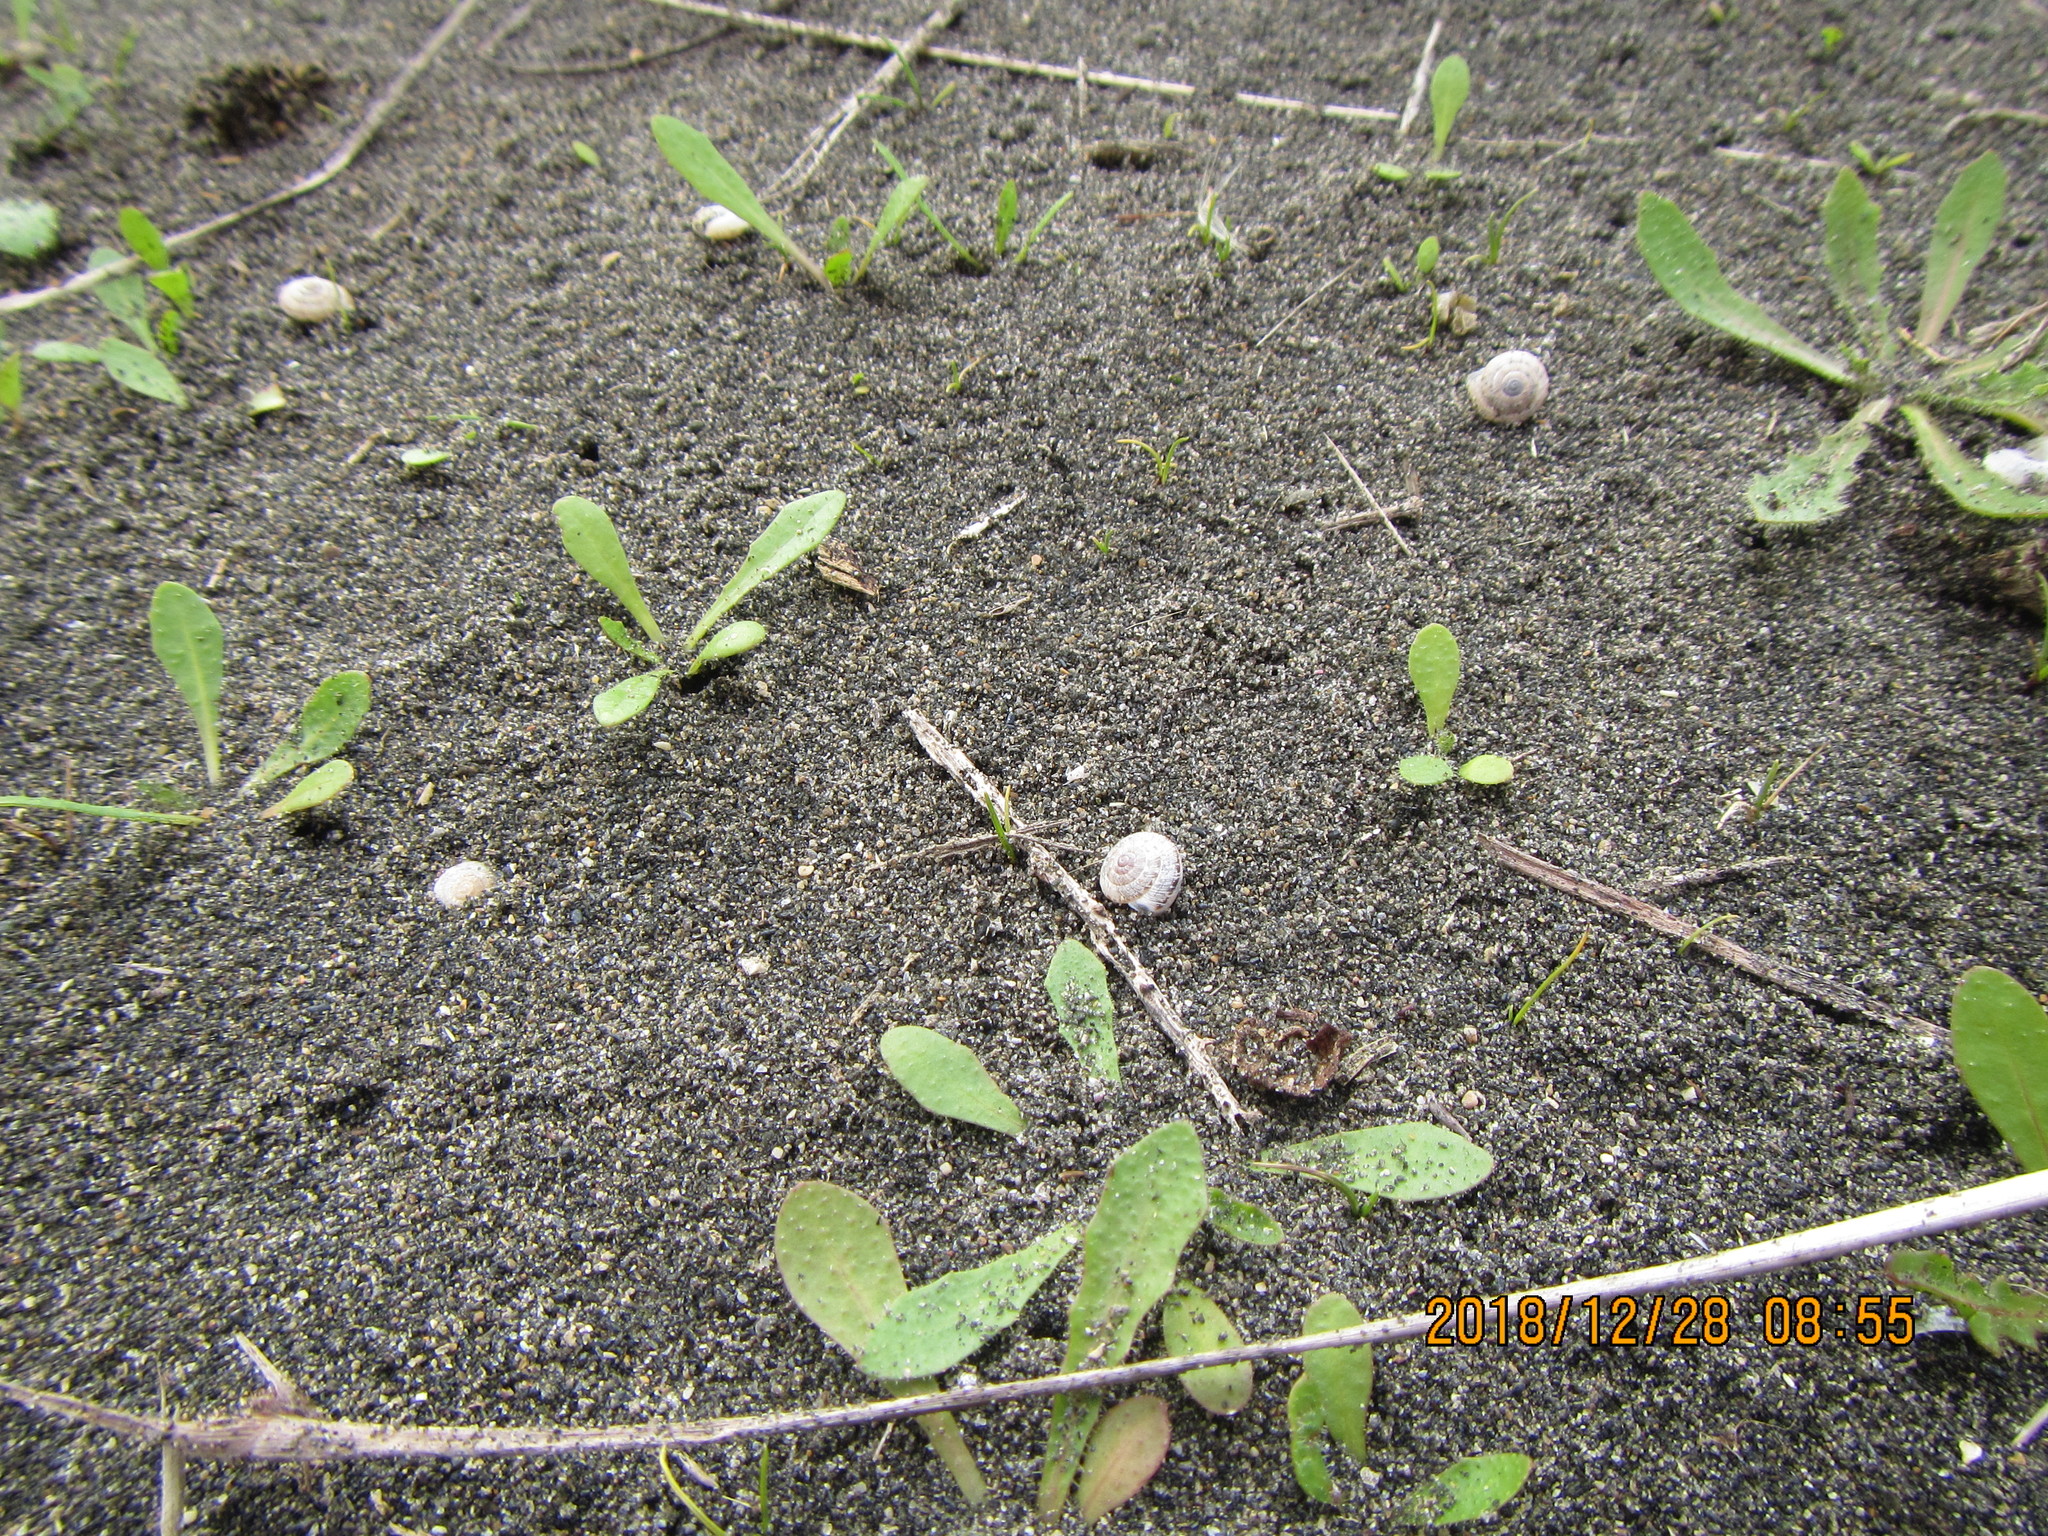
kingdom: Animalia
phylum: Mollusca
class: Gastropoda
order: Stylommatophora
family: Geomitridae
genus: Xeroplexa
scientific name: Xeroplexa intersecta
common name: Wrinkled snail
